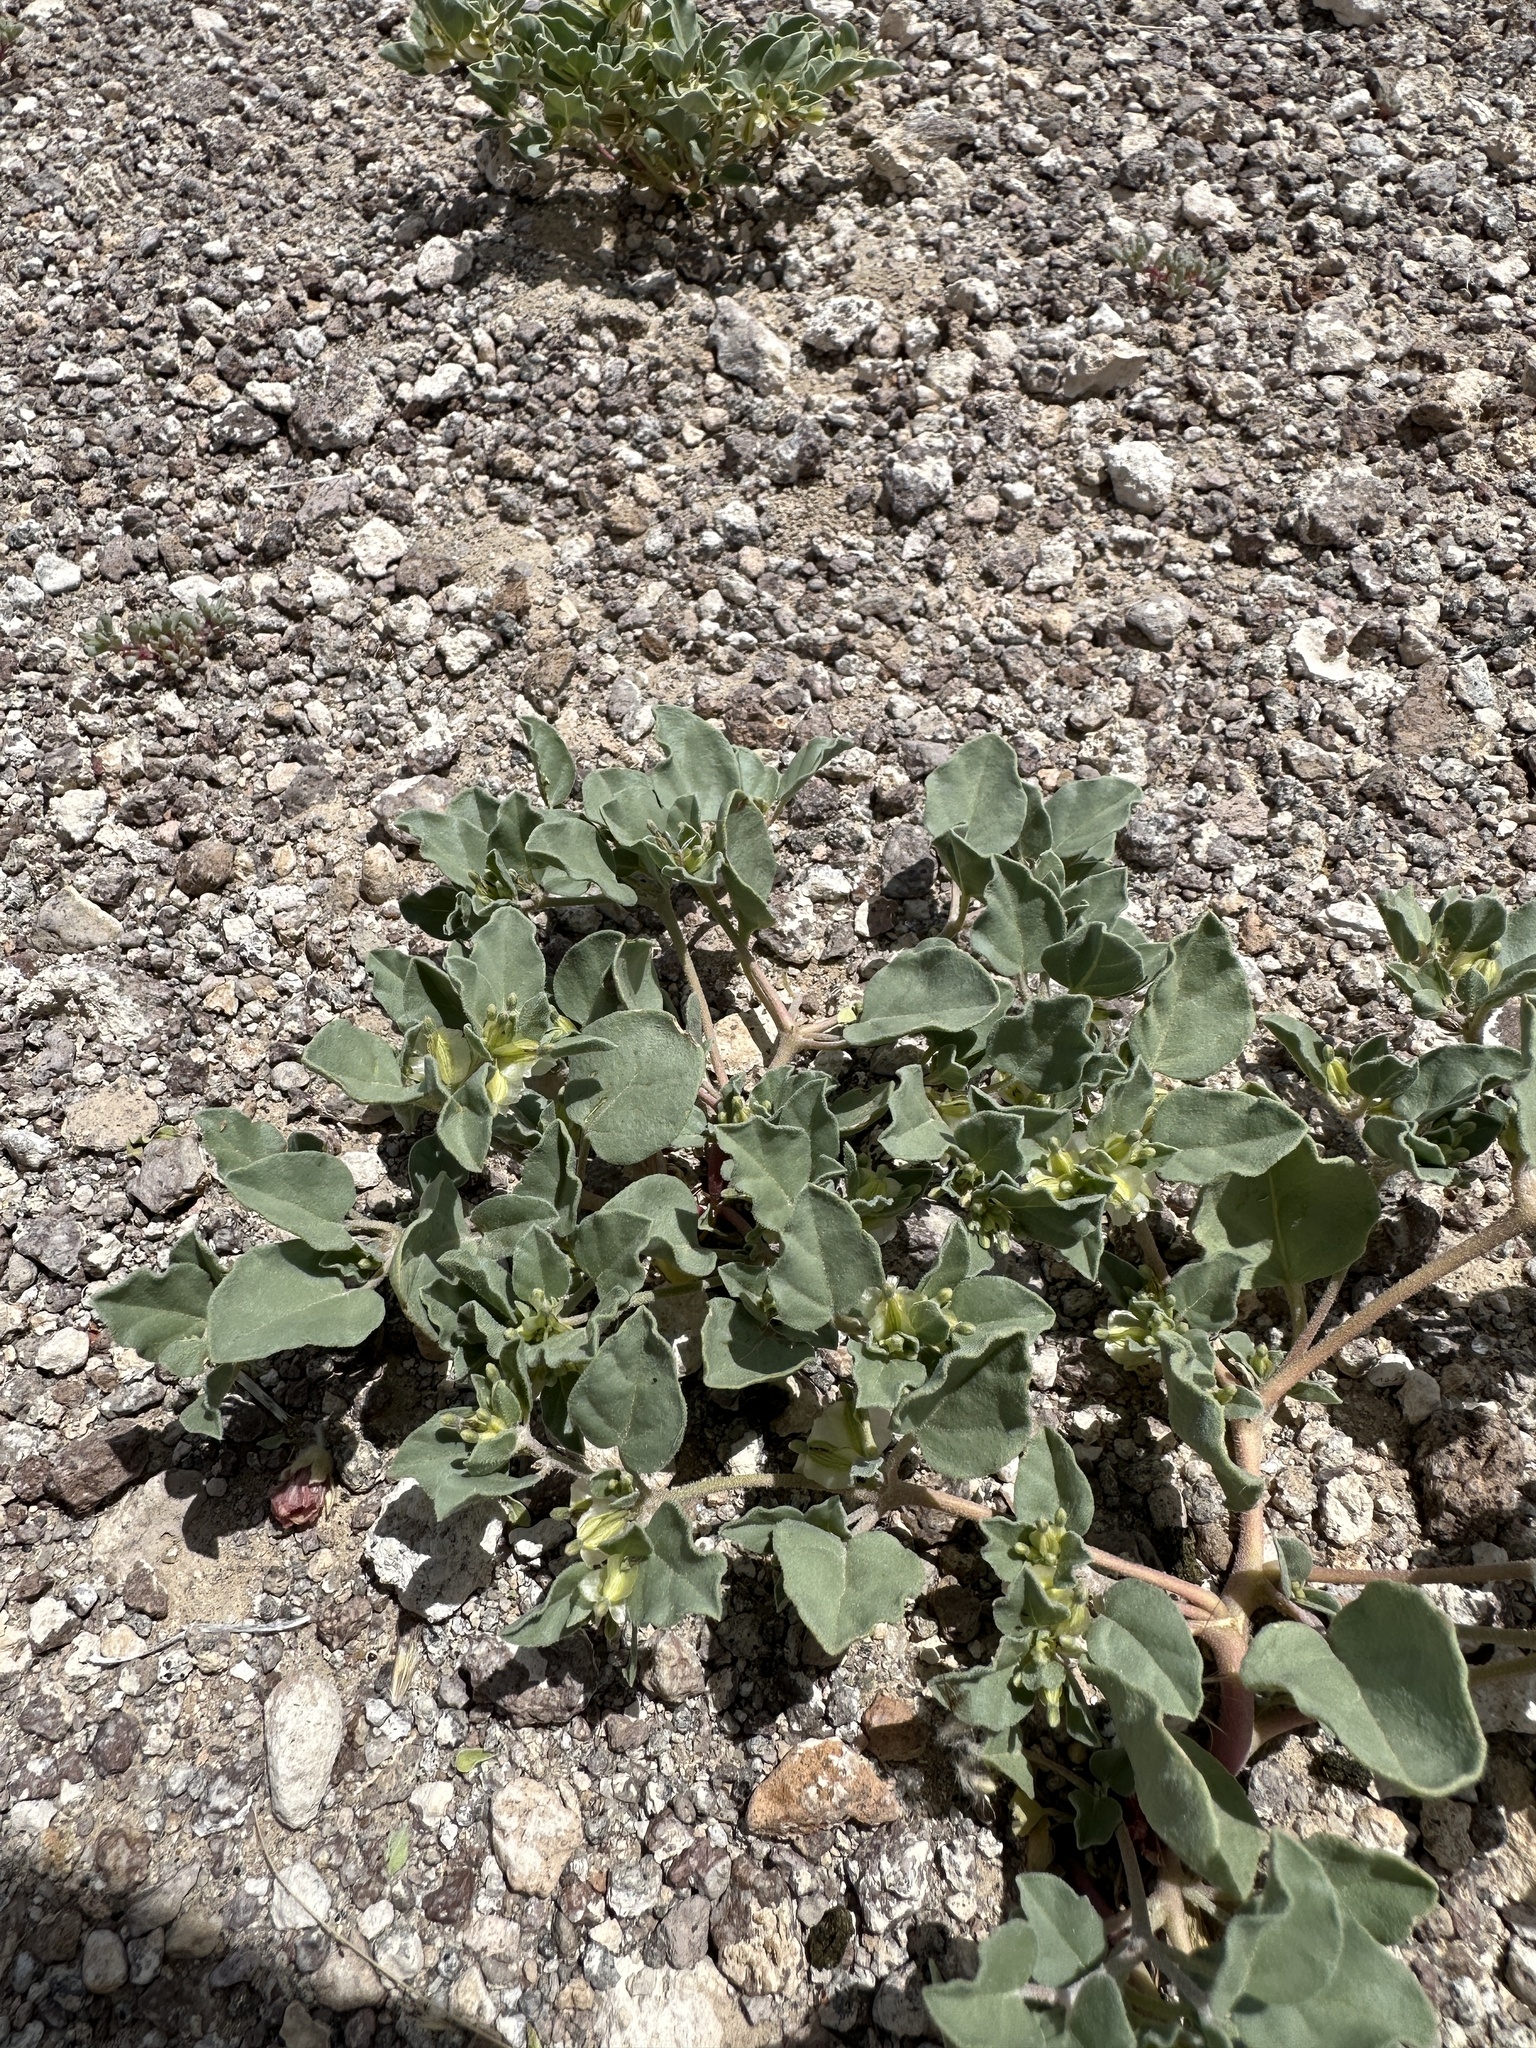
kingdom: Plantae
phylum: Tracheophyta
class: Magnoliopsida
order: Caryophyllales
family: Nyctaginaceae
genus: Acleisanthes
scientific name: Acleisanthes nevadensis
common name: Desert moonpod
